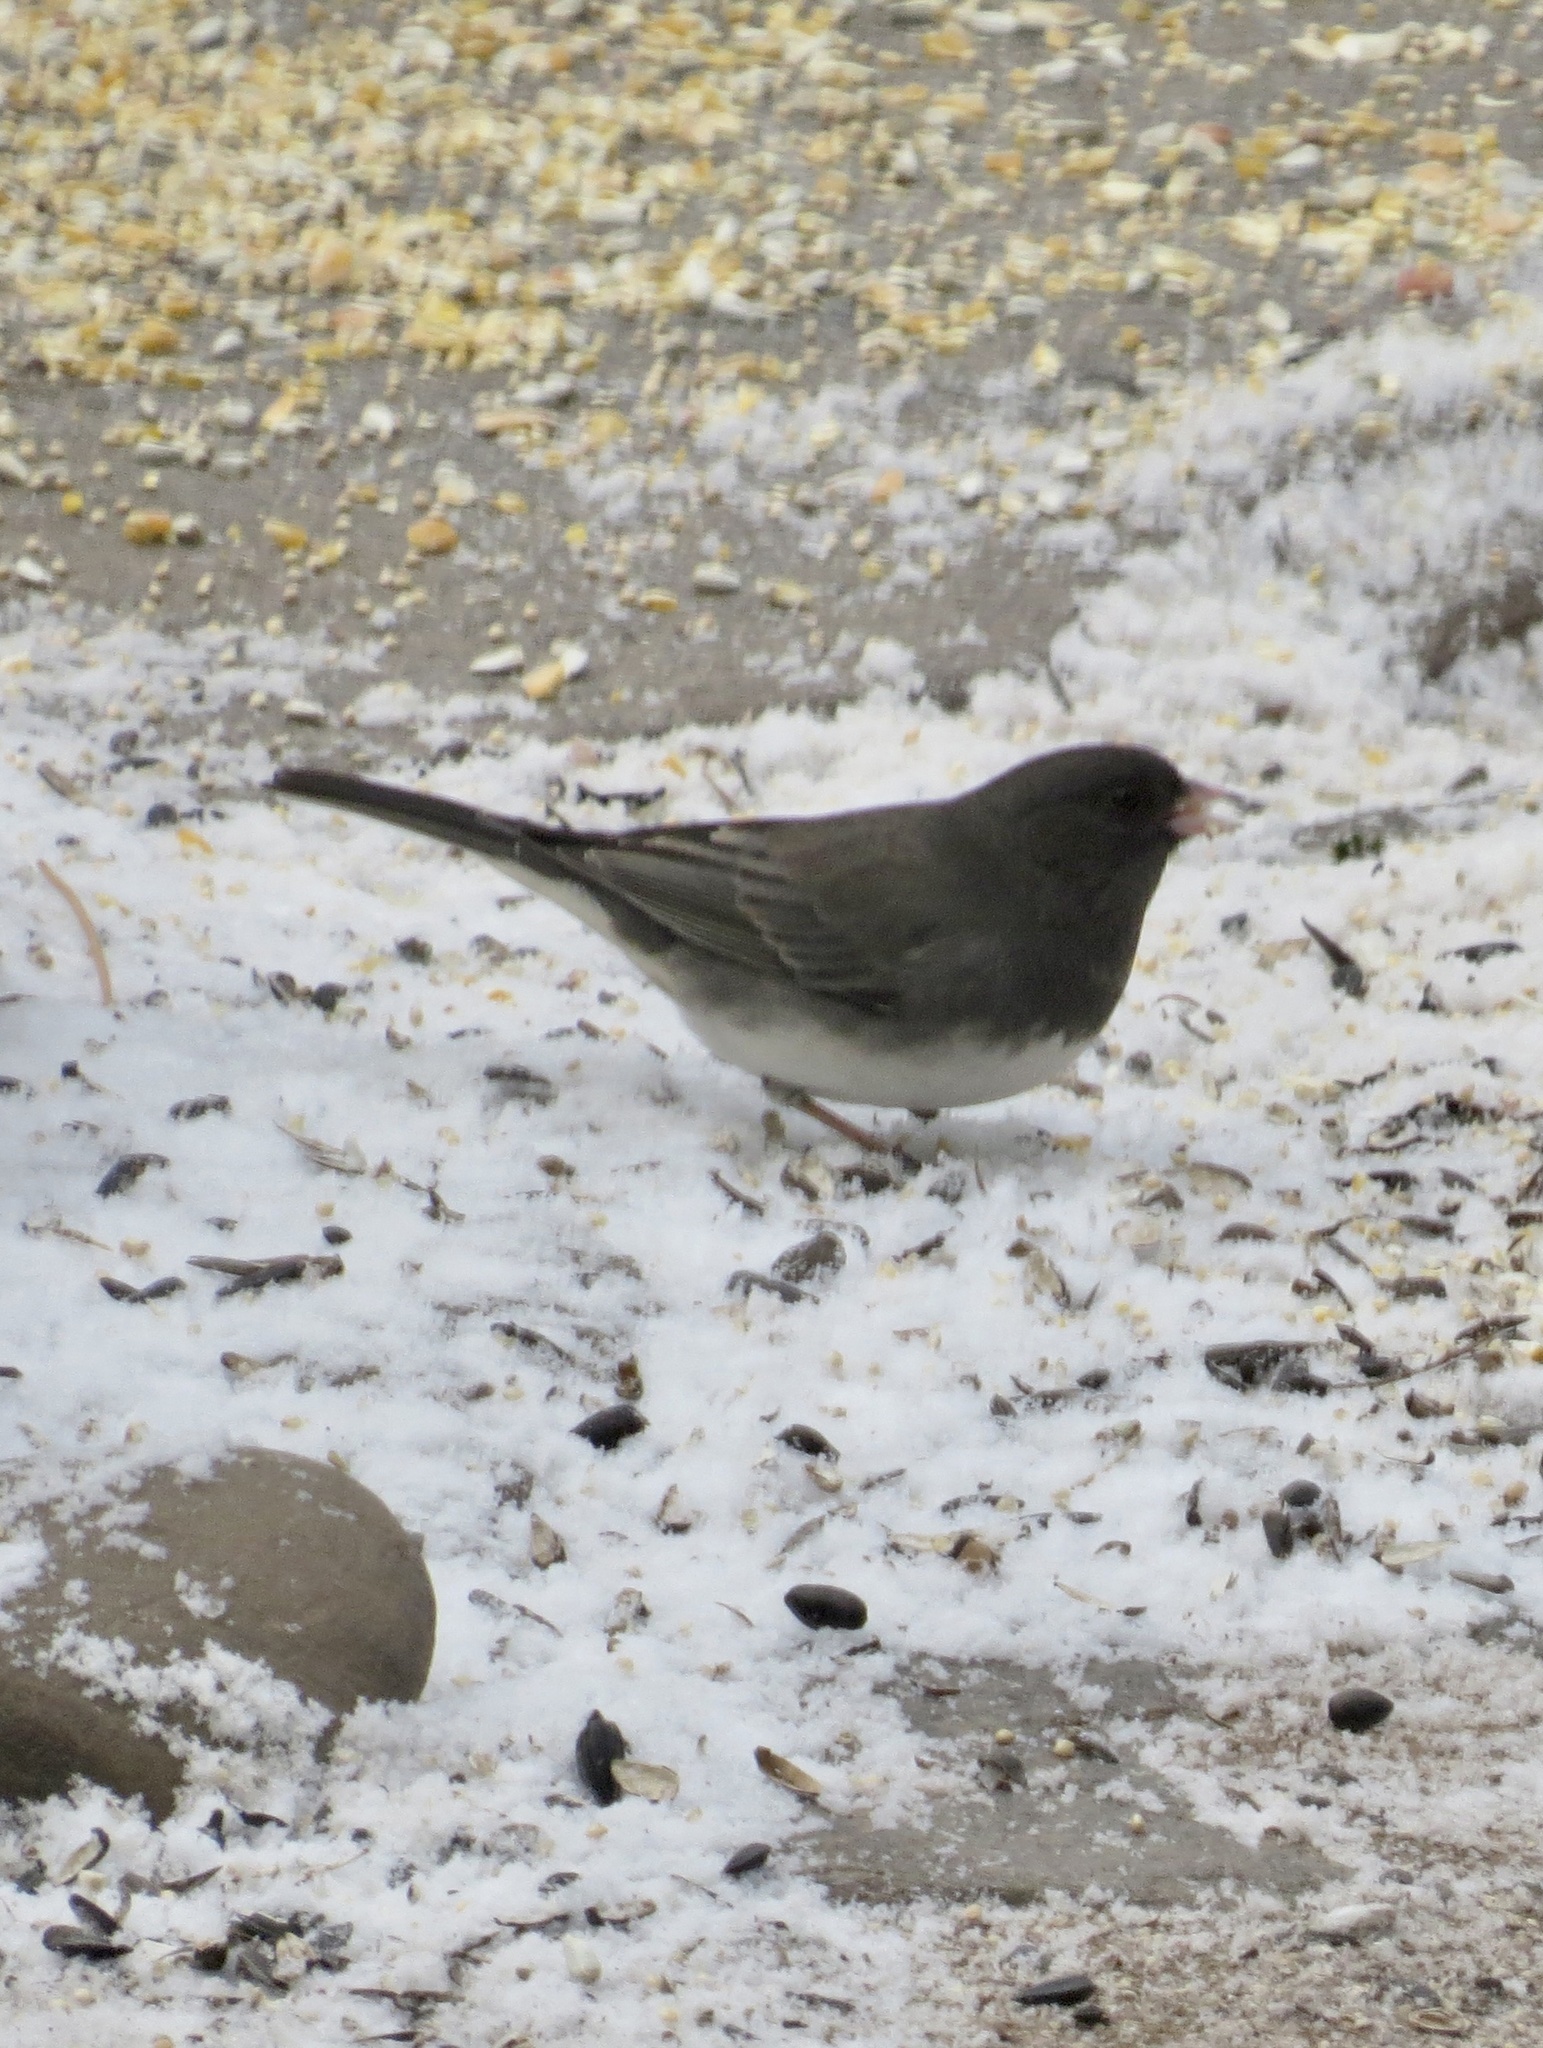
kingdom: Animalia
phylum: Chordata
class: Aves
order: Passeriformes
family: Passerellidae
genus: Junco
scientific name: Junco hyemalis
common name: Dark-eyed junco
